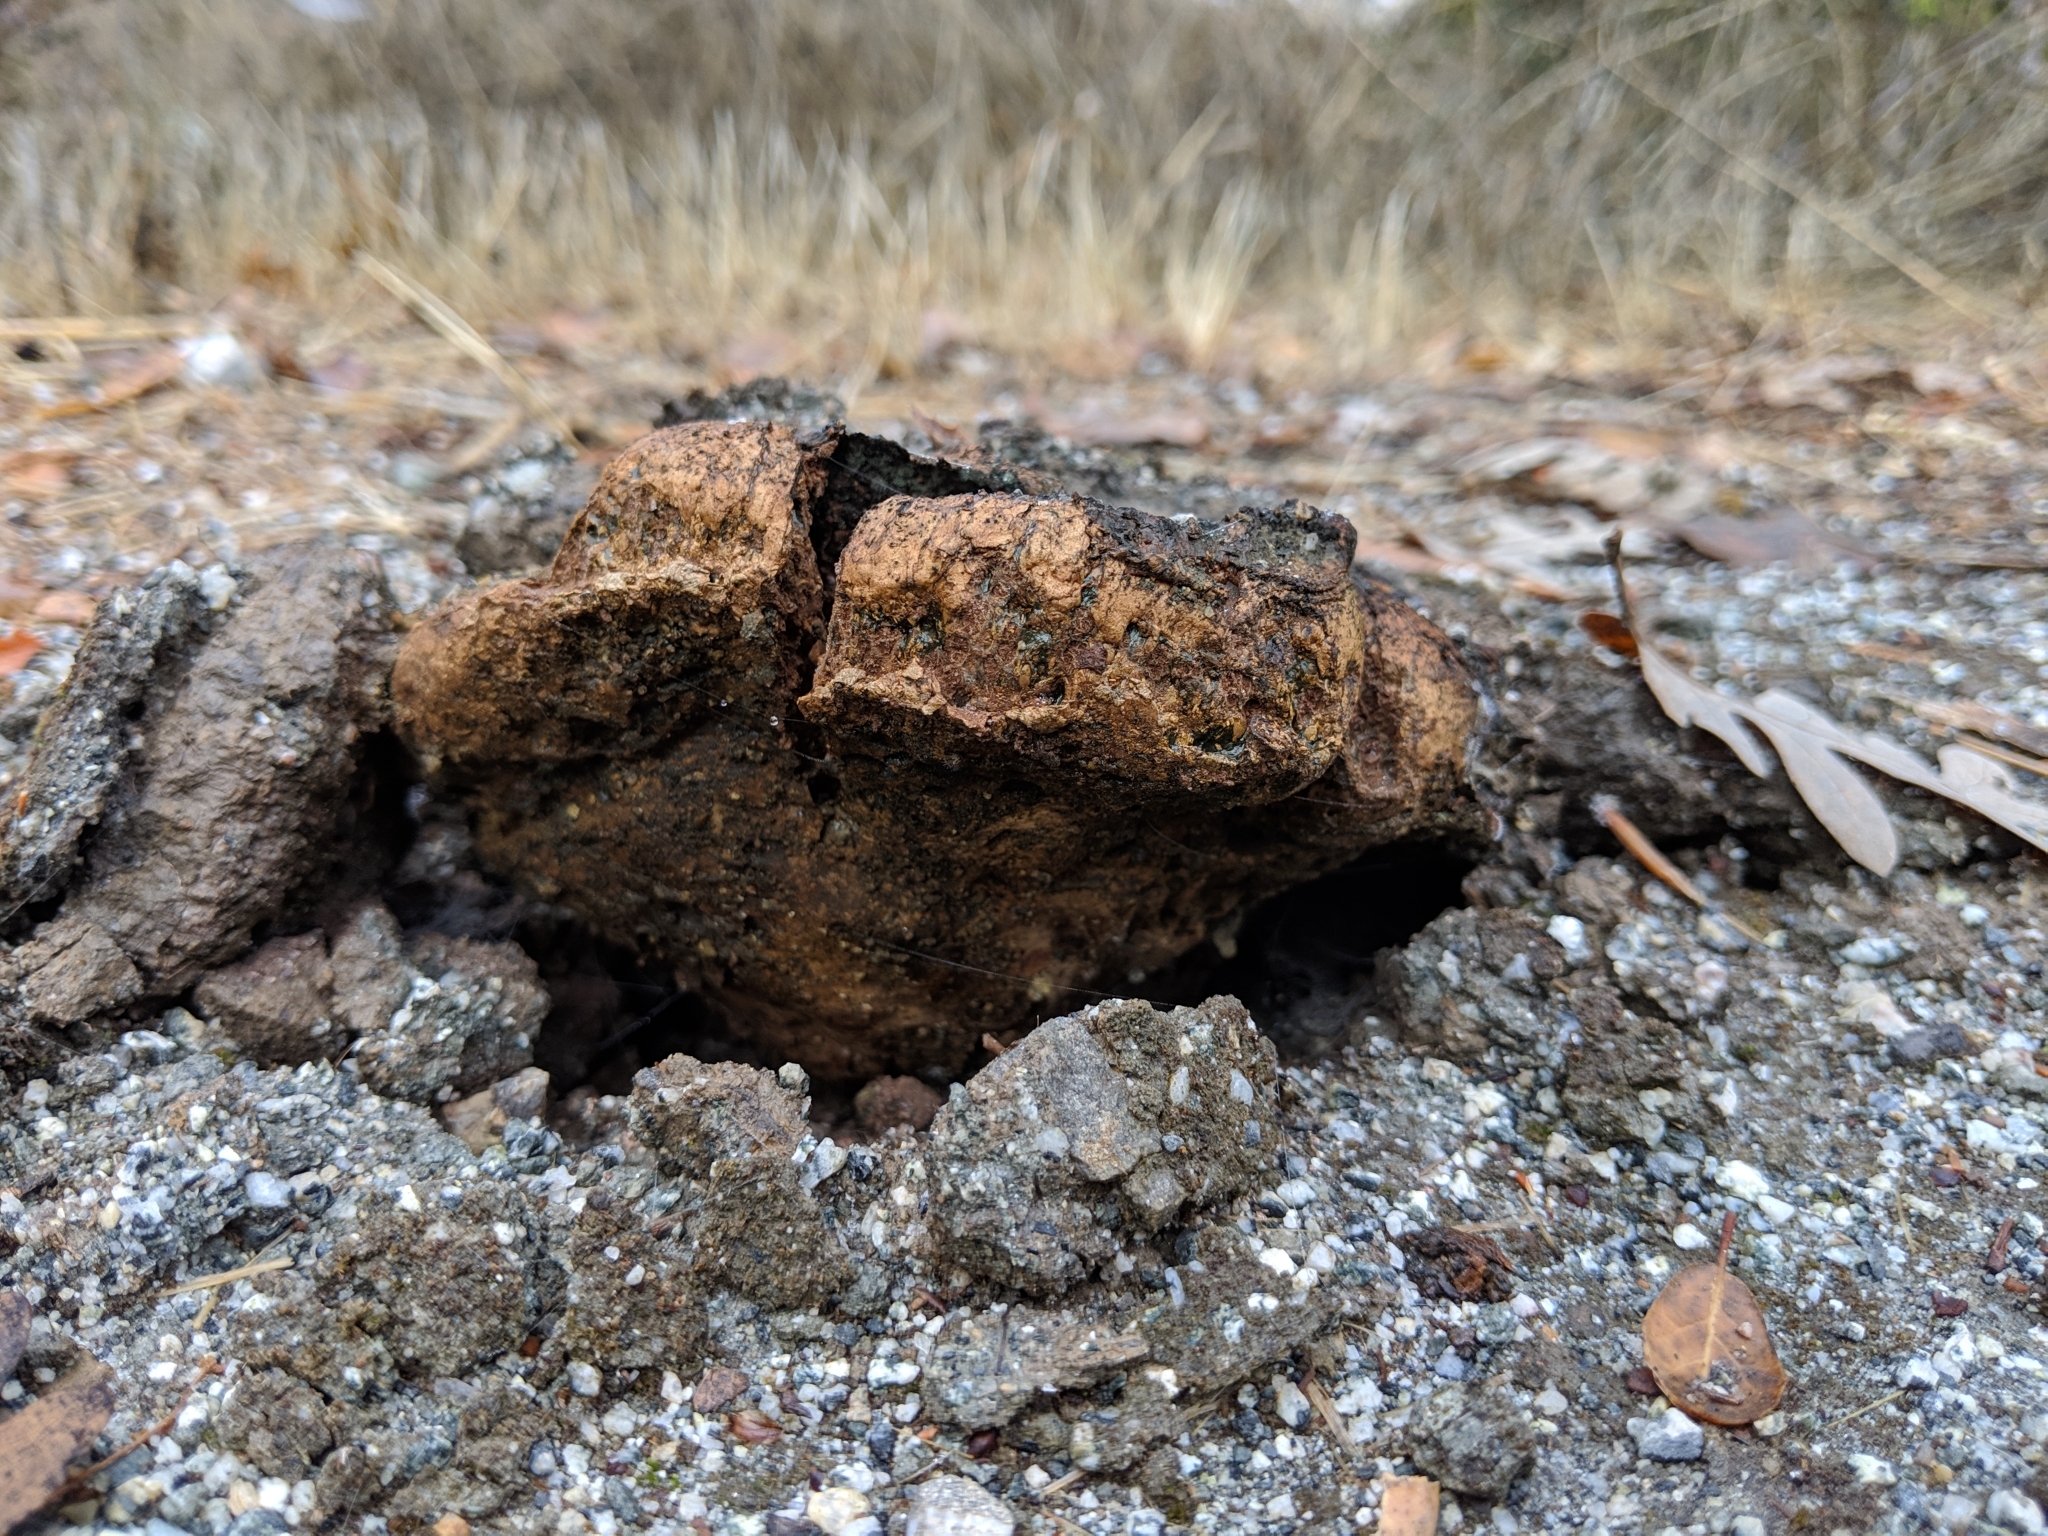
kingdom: Fungi
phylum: Basidiomycota
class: Agaricomycetes
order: Boletales
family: Sclerodermataceae
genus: Pisolithus
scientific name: Pisolithus tinctorius
